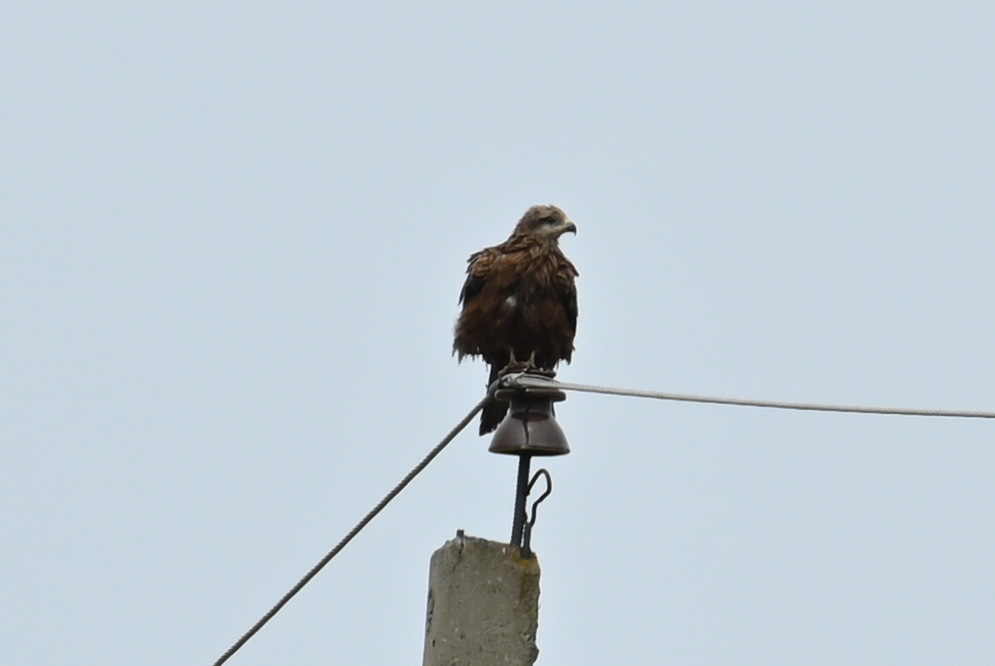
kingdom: Animalia
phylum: Chordata
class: Aves
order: Accipitriformes
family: Accipitridae
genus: Milvus
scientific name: Milvus migrans
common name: Black kite
